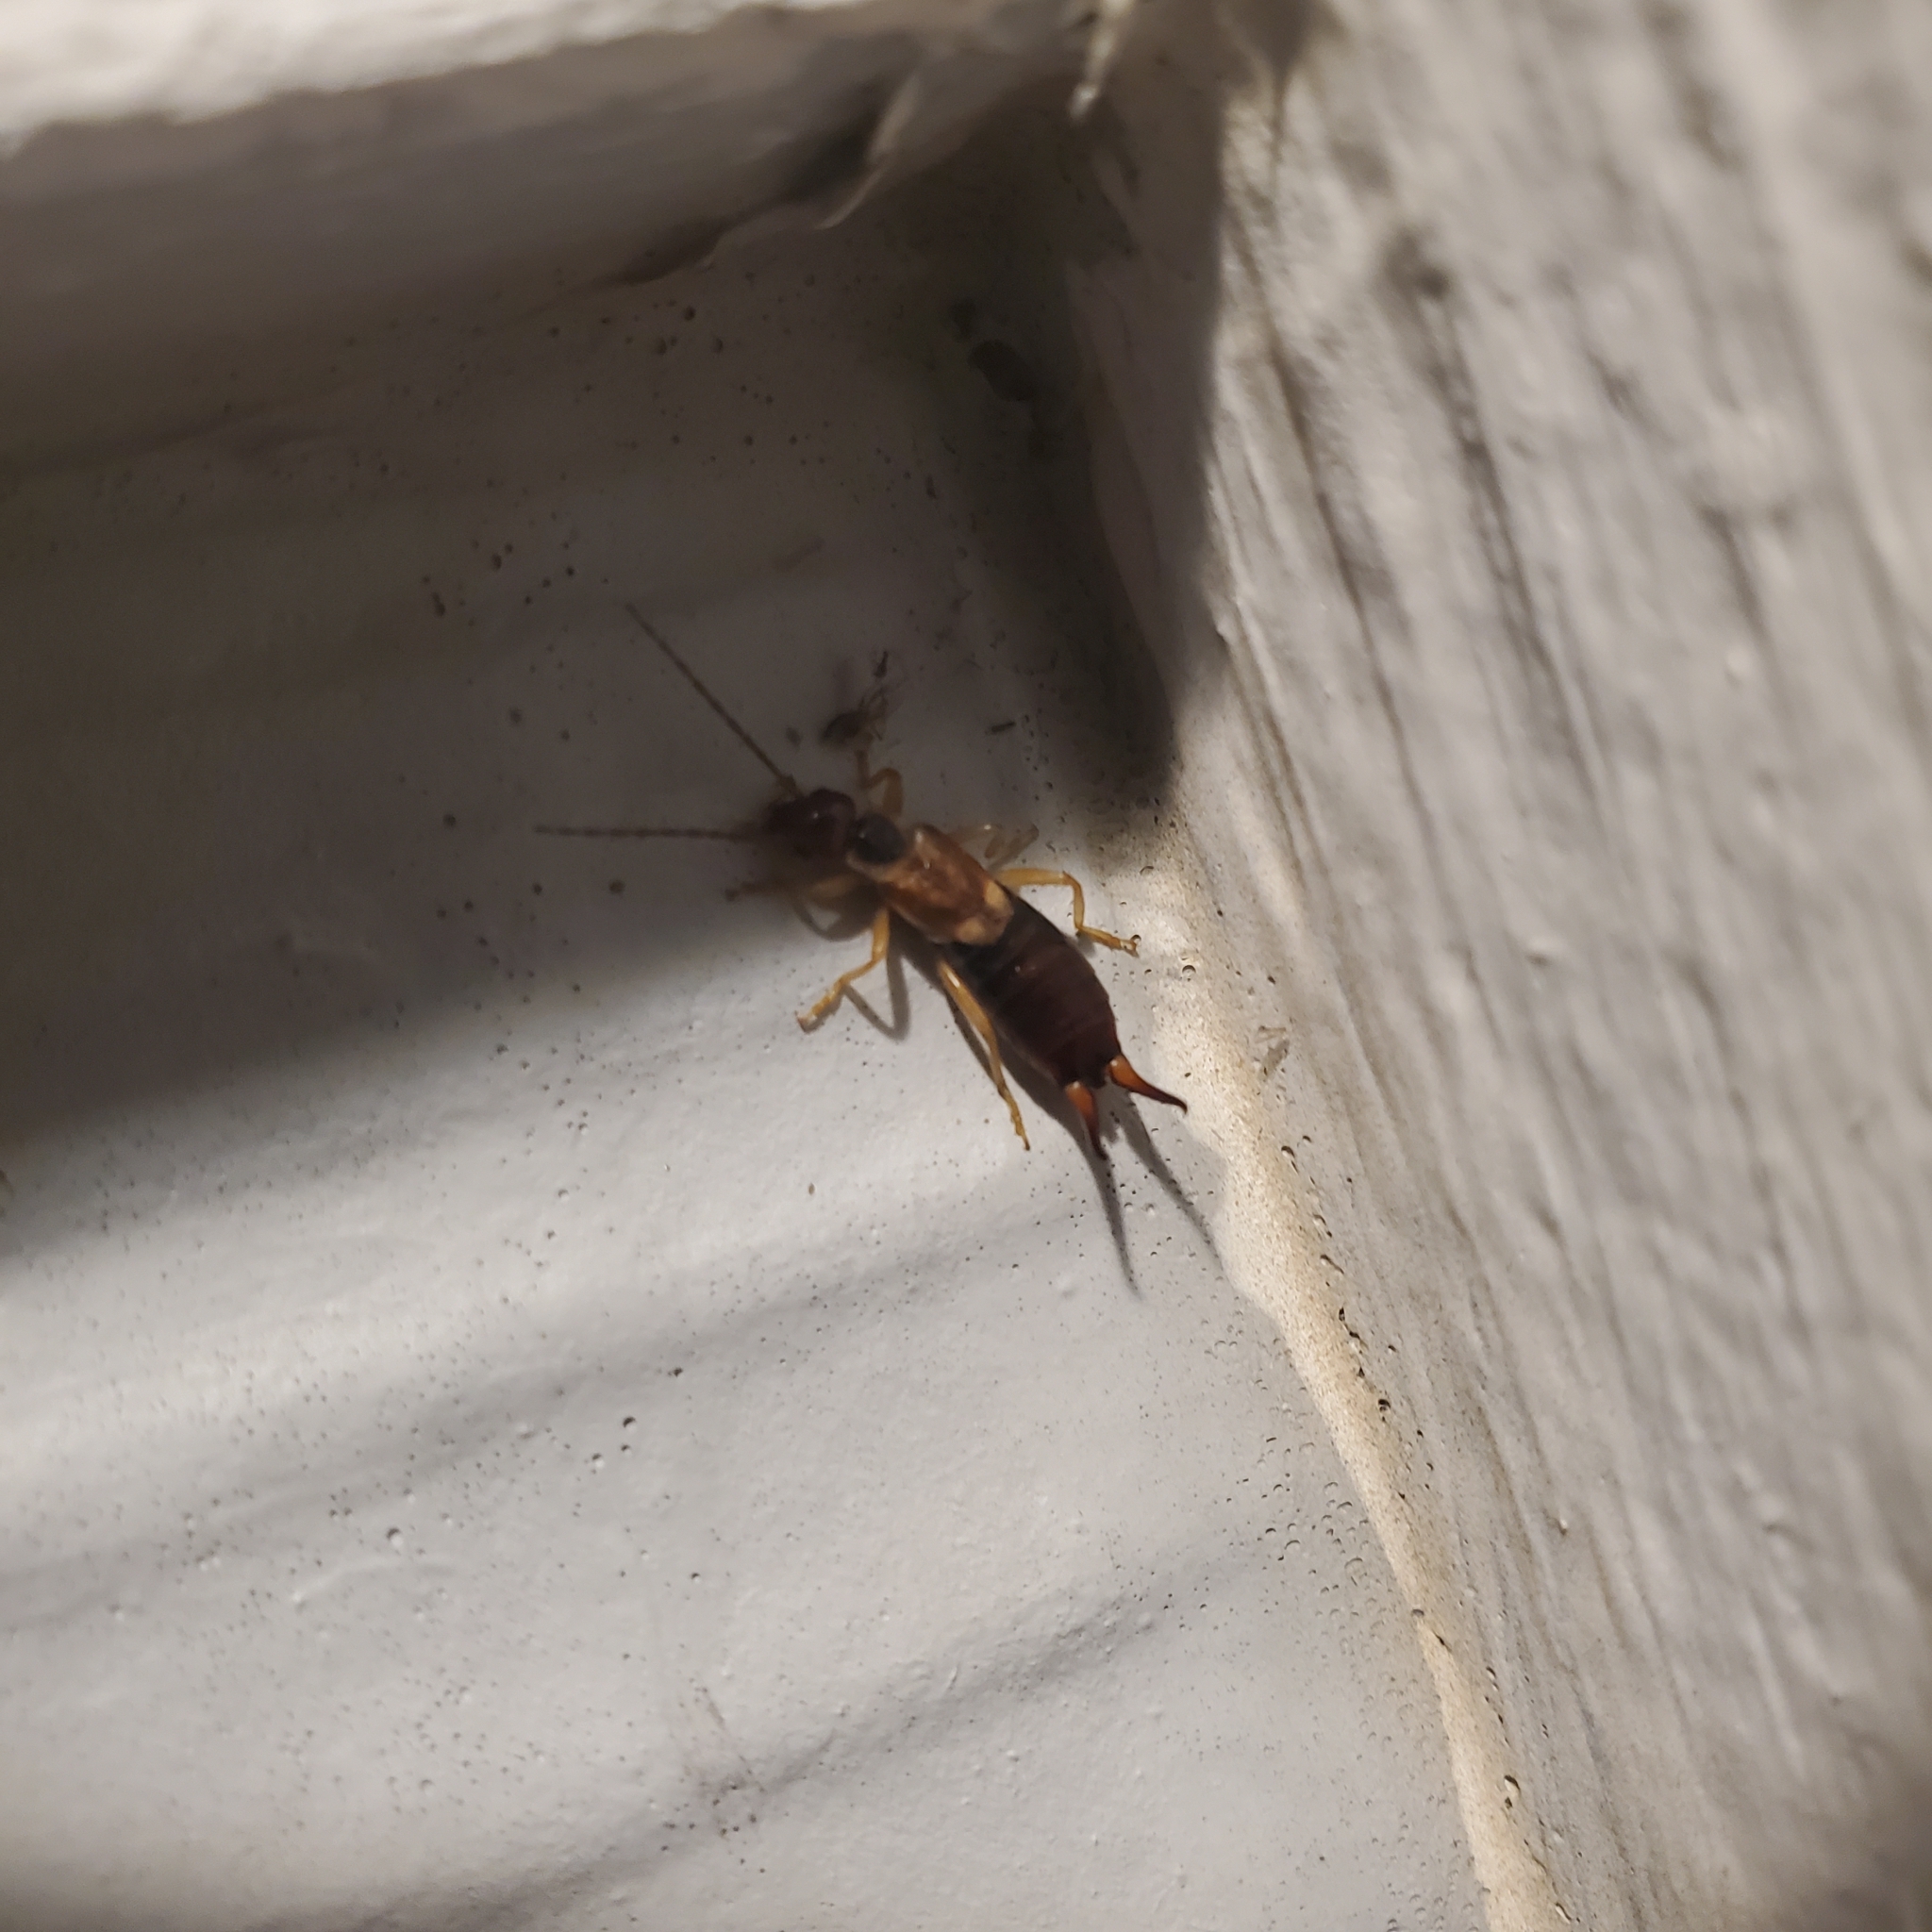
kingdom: Animalia
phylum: Arthropoda
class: Insecta
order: Dermaptera
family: Forficulidae
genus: Forficula
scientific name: Forficula
